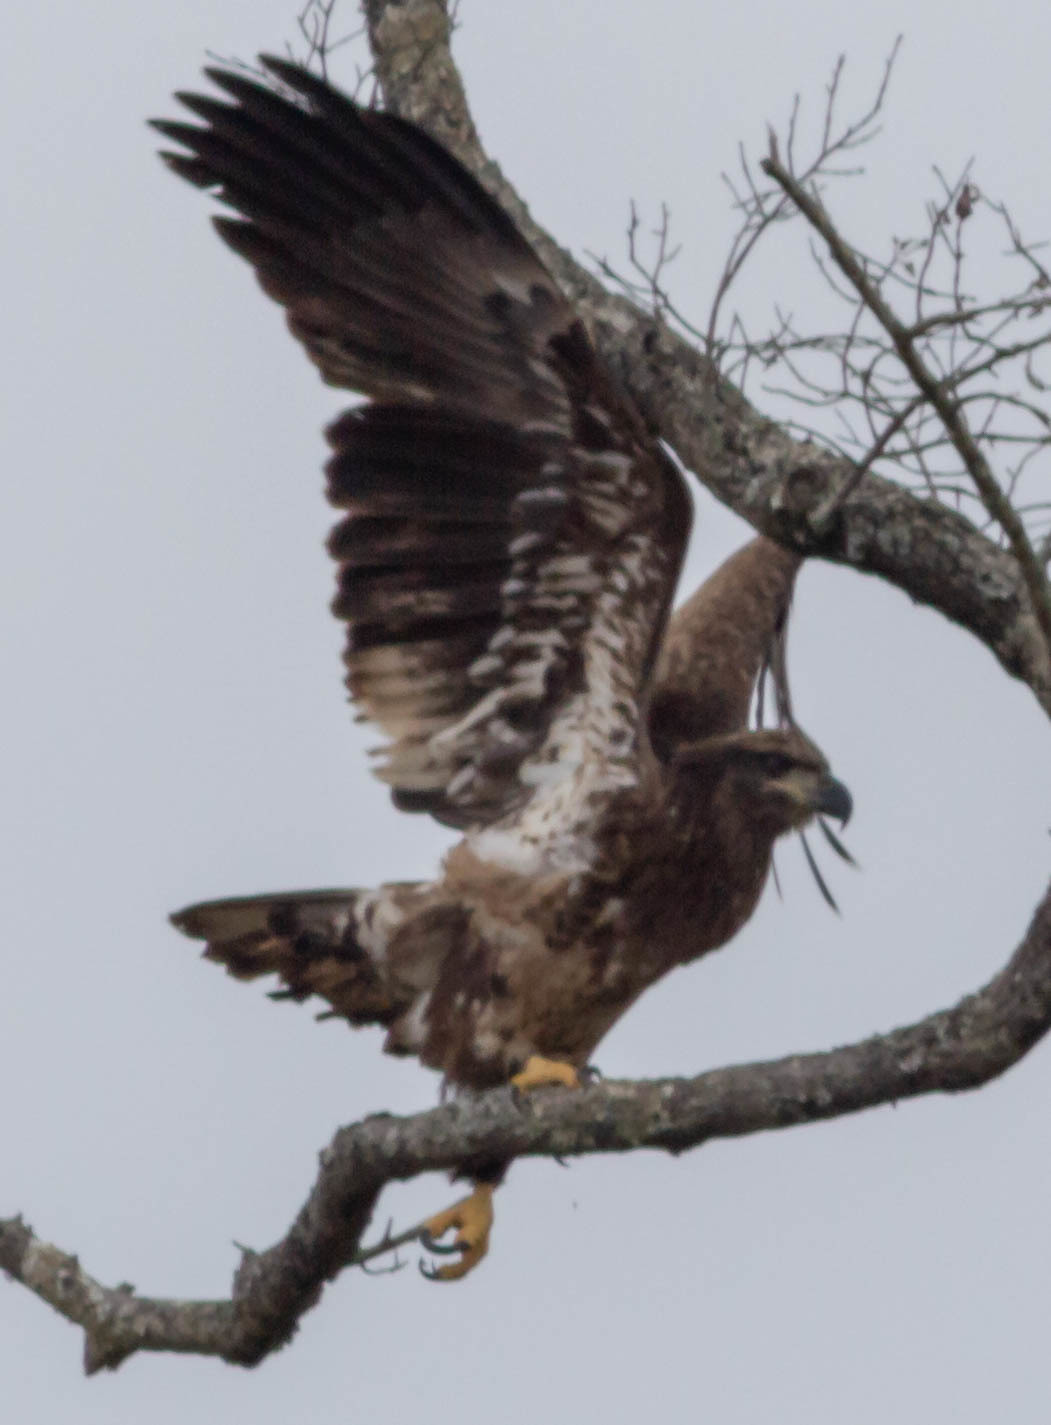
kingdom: Animalia
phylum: Chordata
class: Aves
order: Accipitriformes
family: Accipitridae
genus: Haliaeetus
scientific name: Haliaeetus leucocephalus
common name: Bald eagle
